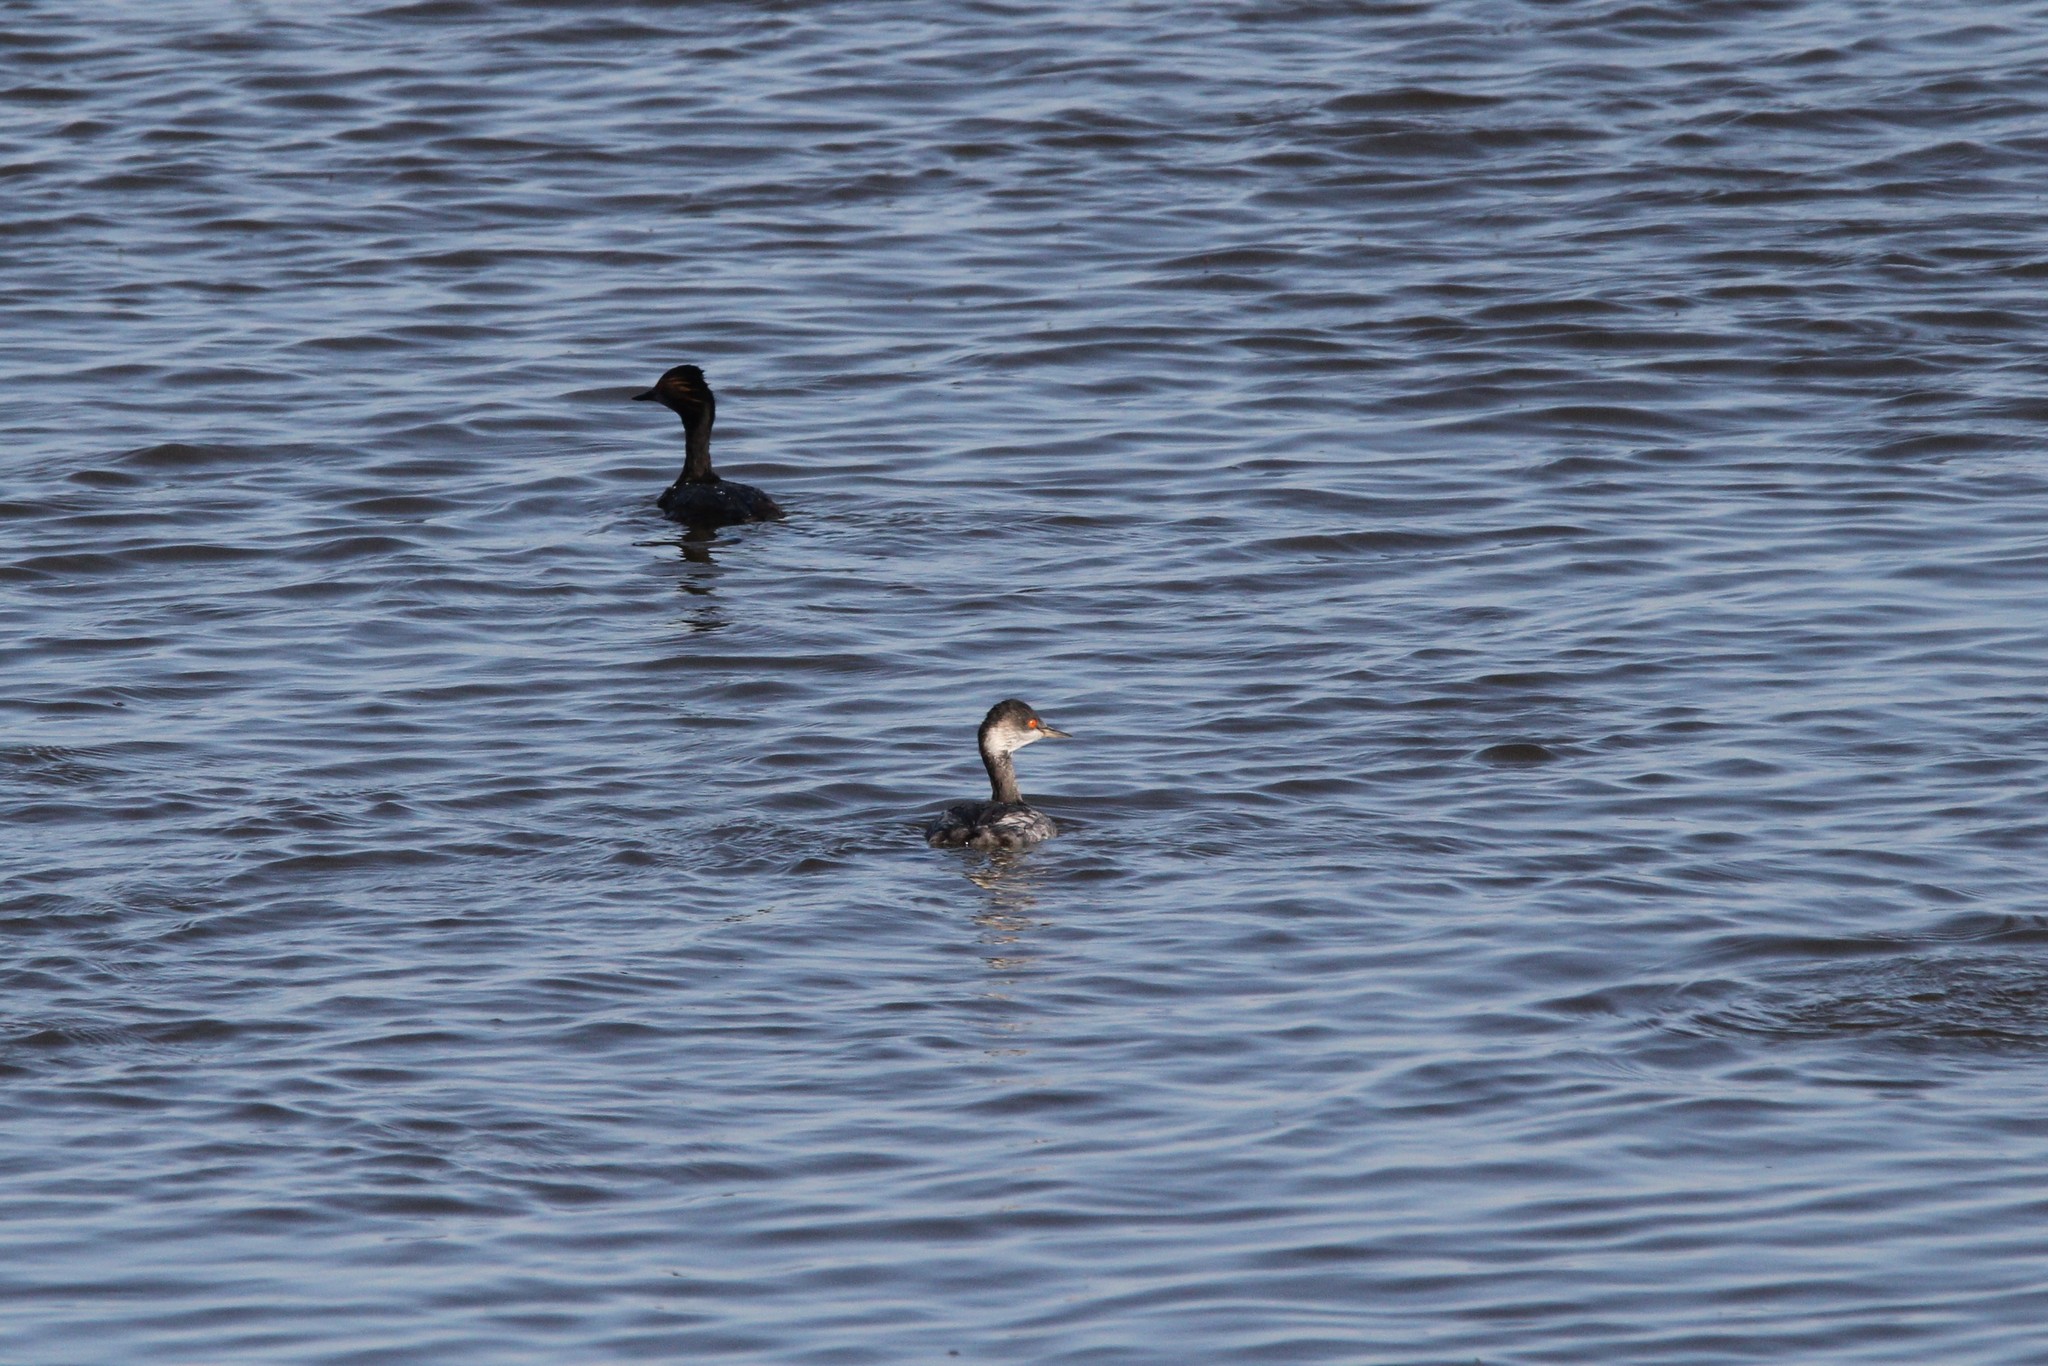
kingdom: Animalia
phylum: Chordata
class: Aves
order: Podicipediformes
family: Podicipedidae
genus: Podiceps
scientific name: Podiceps nigricollis
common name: Black-necked grebe
